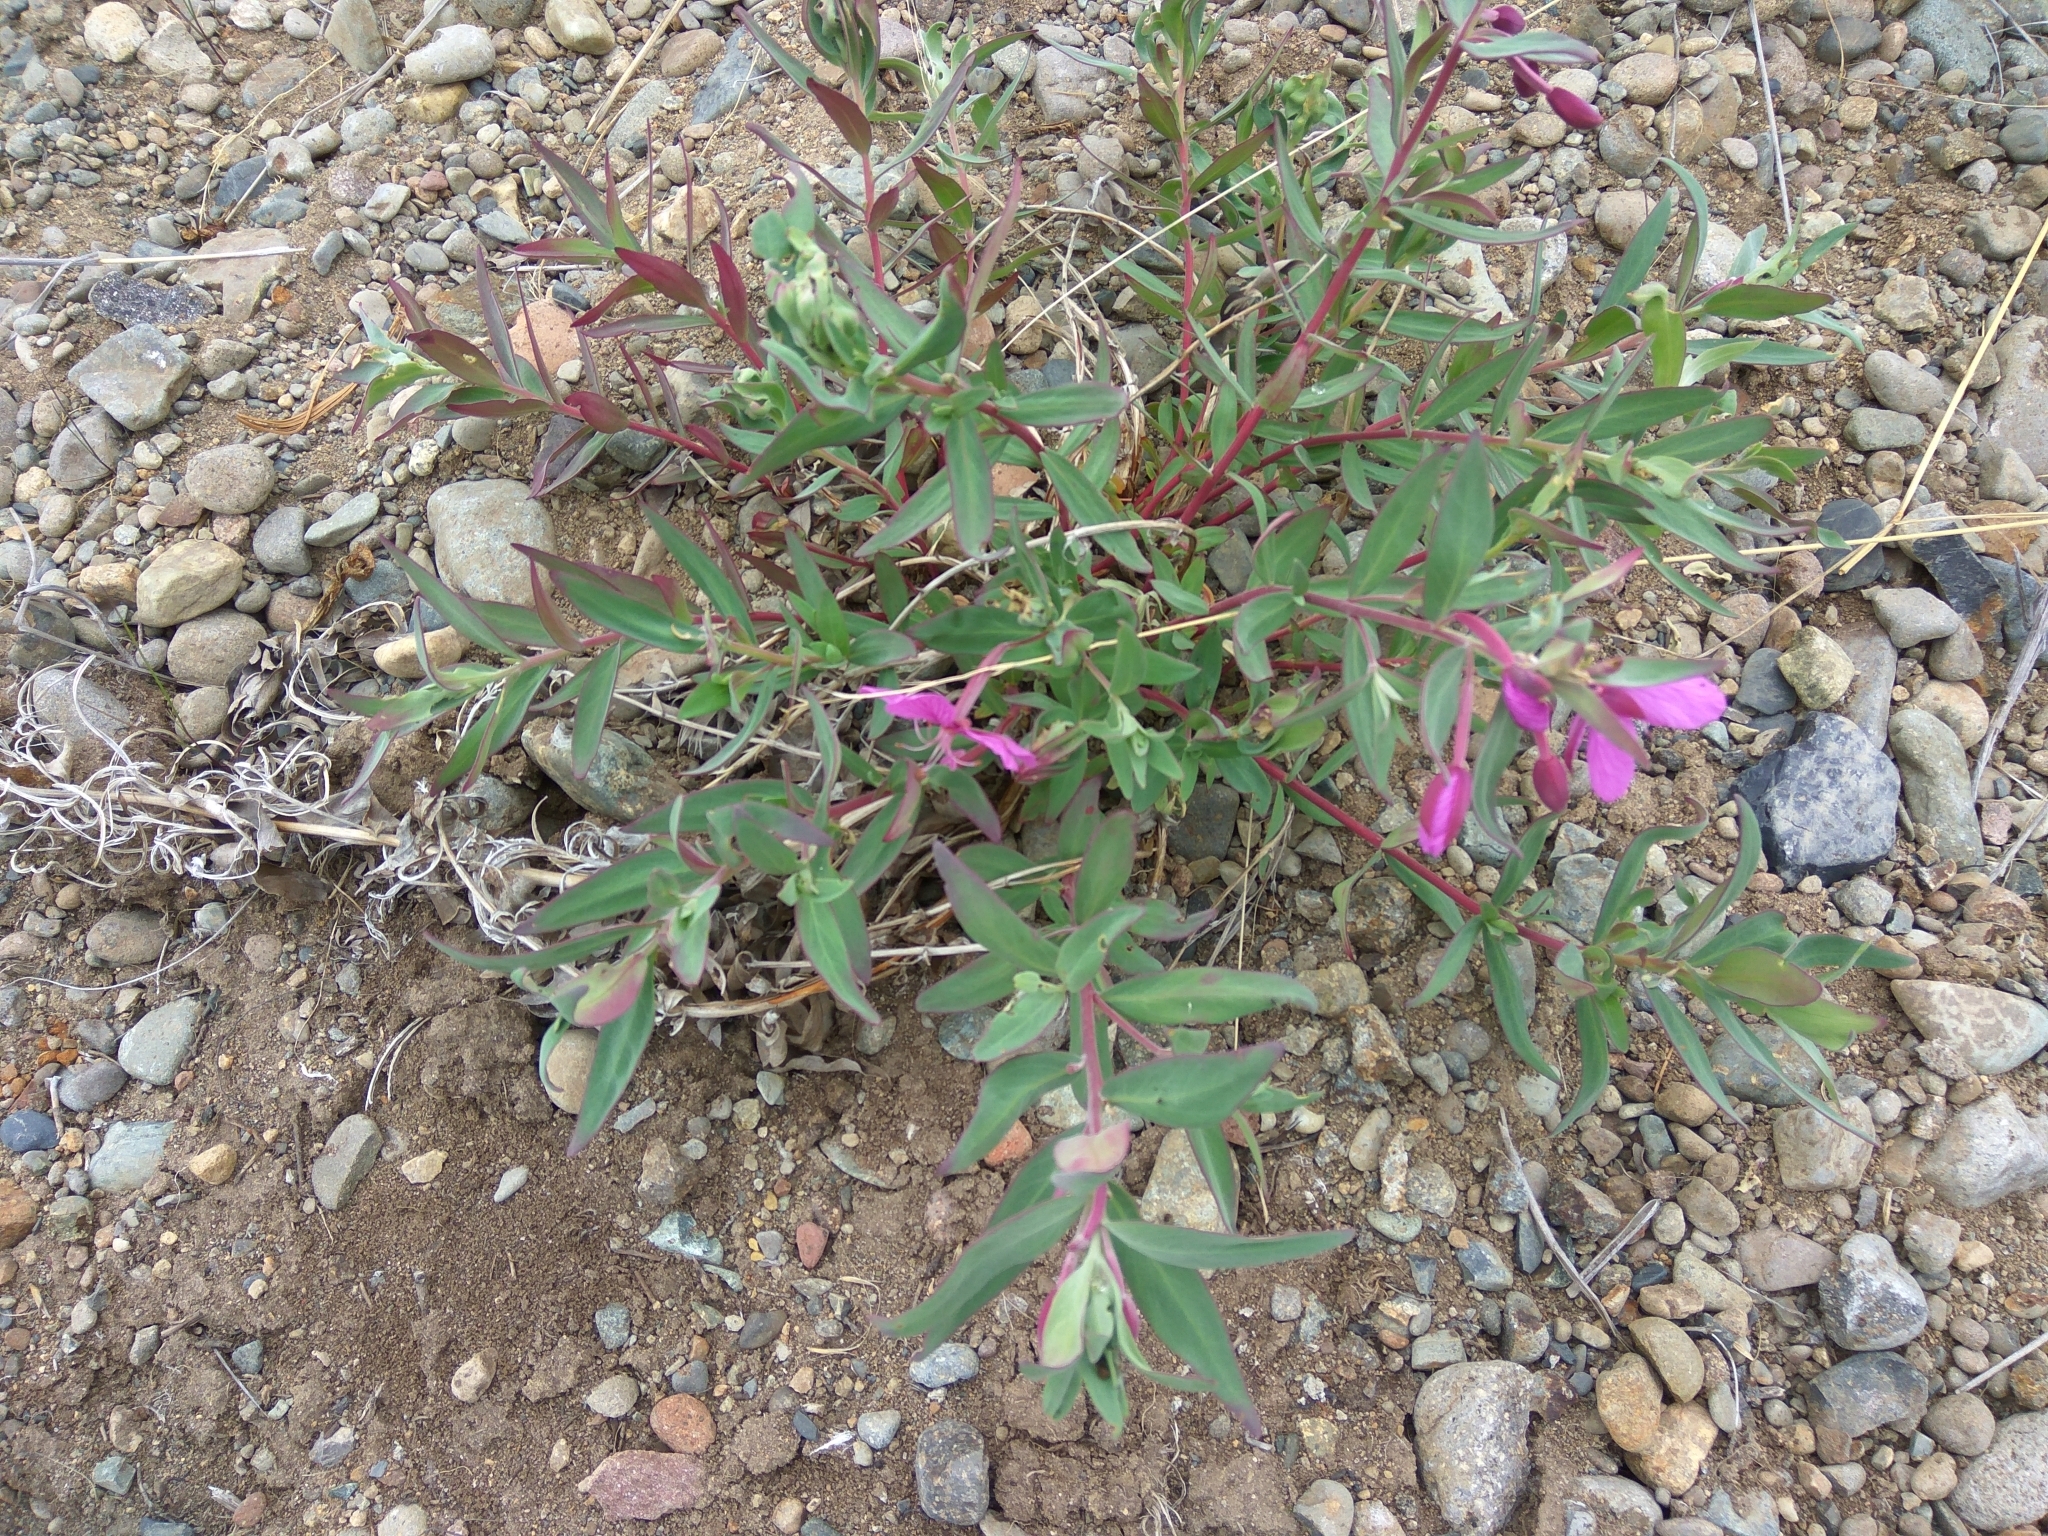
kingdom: Plantae
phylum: Tracheophyta
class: Magnoliopsida
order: Myrtales
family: Onagraceae
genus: Chamaenerion
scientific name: Chamaenerion latifolium
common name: Dwarf fireweed
